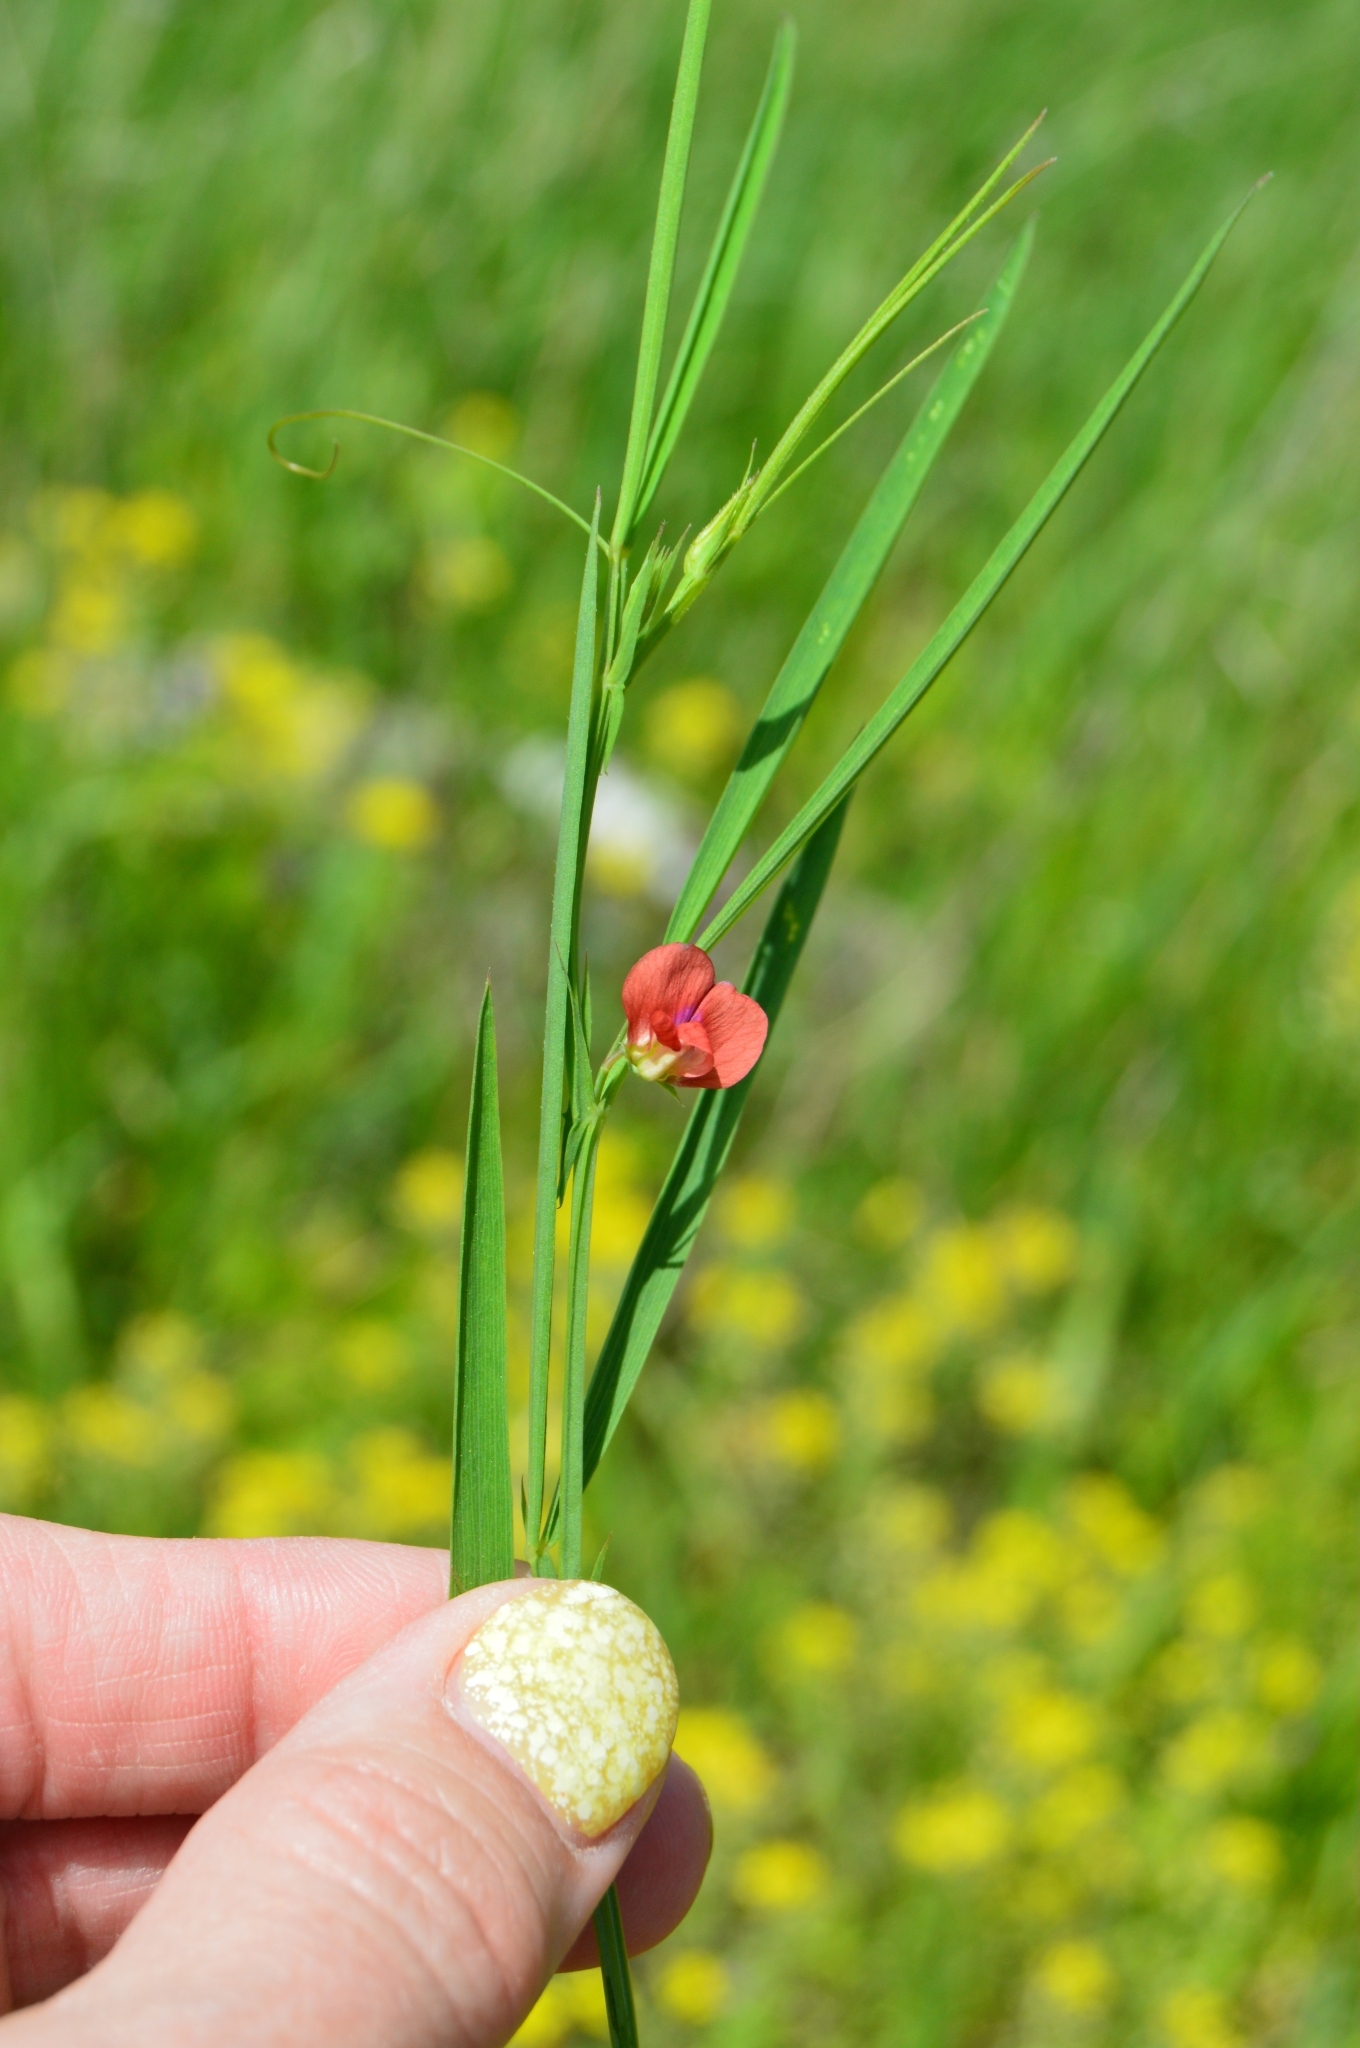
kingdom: Plantae
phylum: Tracheophyta
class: Magnoliopsida
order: Fabales
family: Fabaceae
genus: Lathyrus
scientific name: Lathyrus sphaericus
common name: Grass pea
